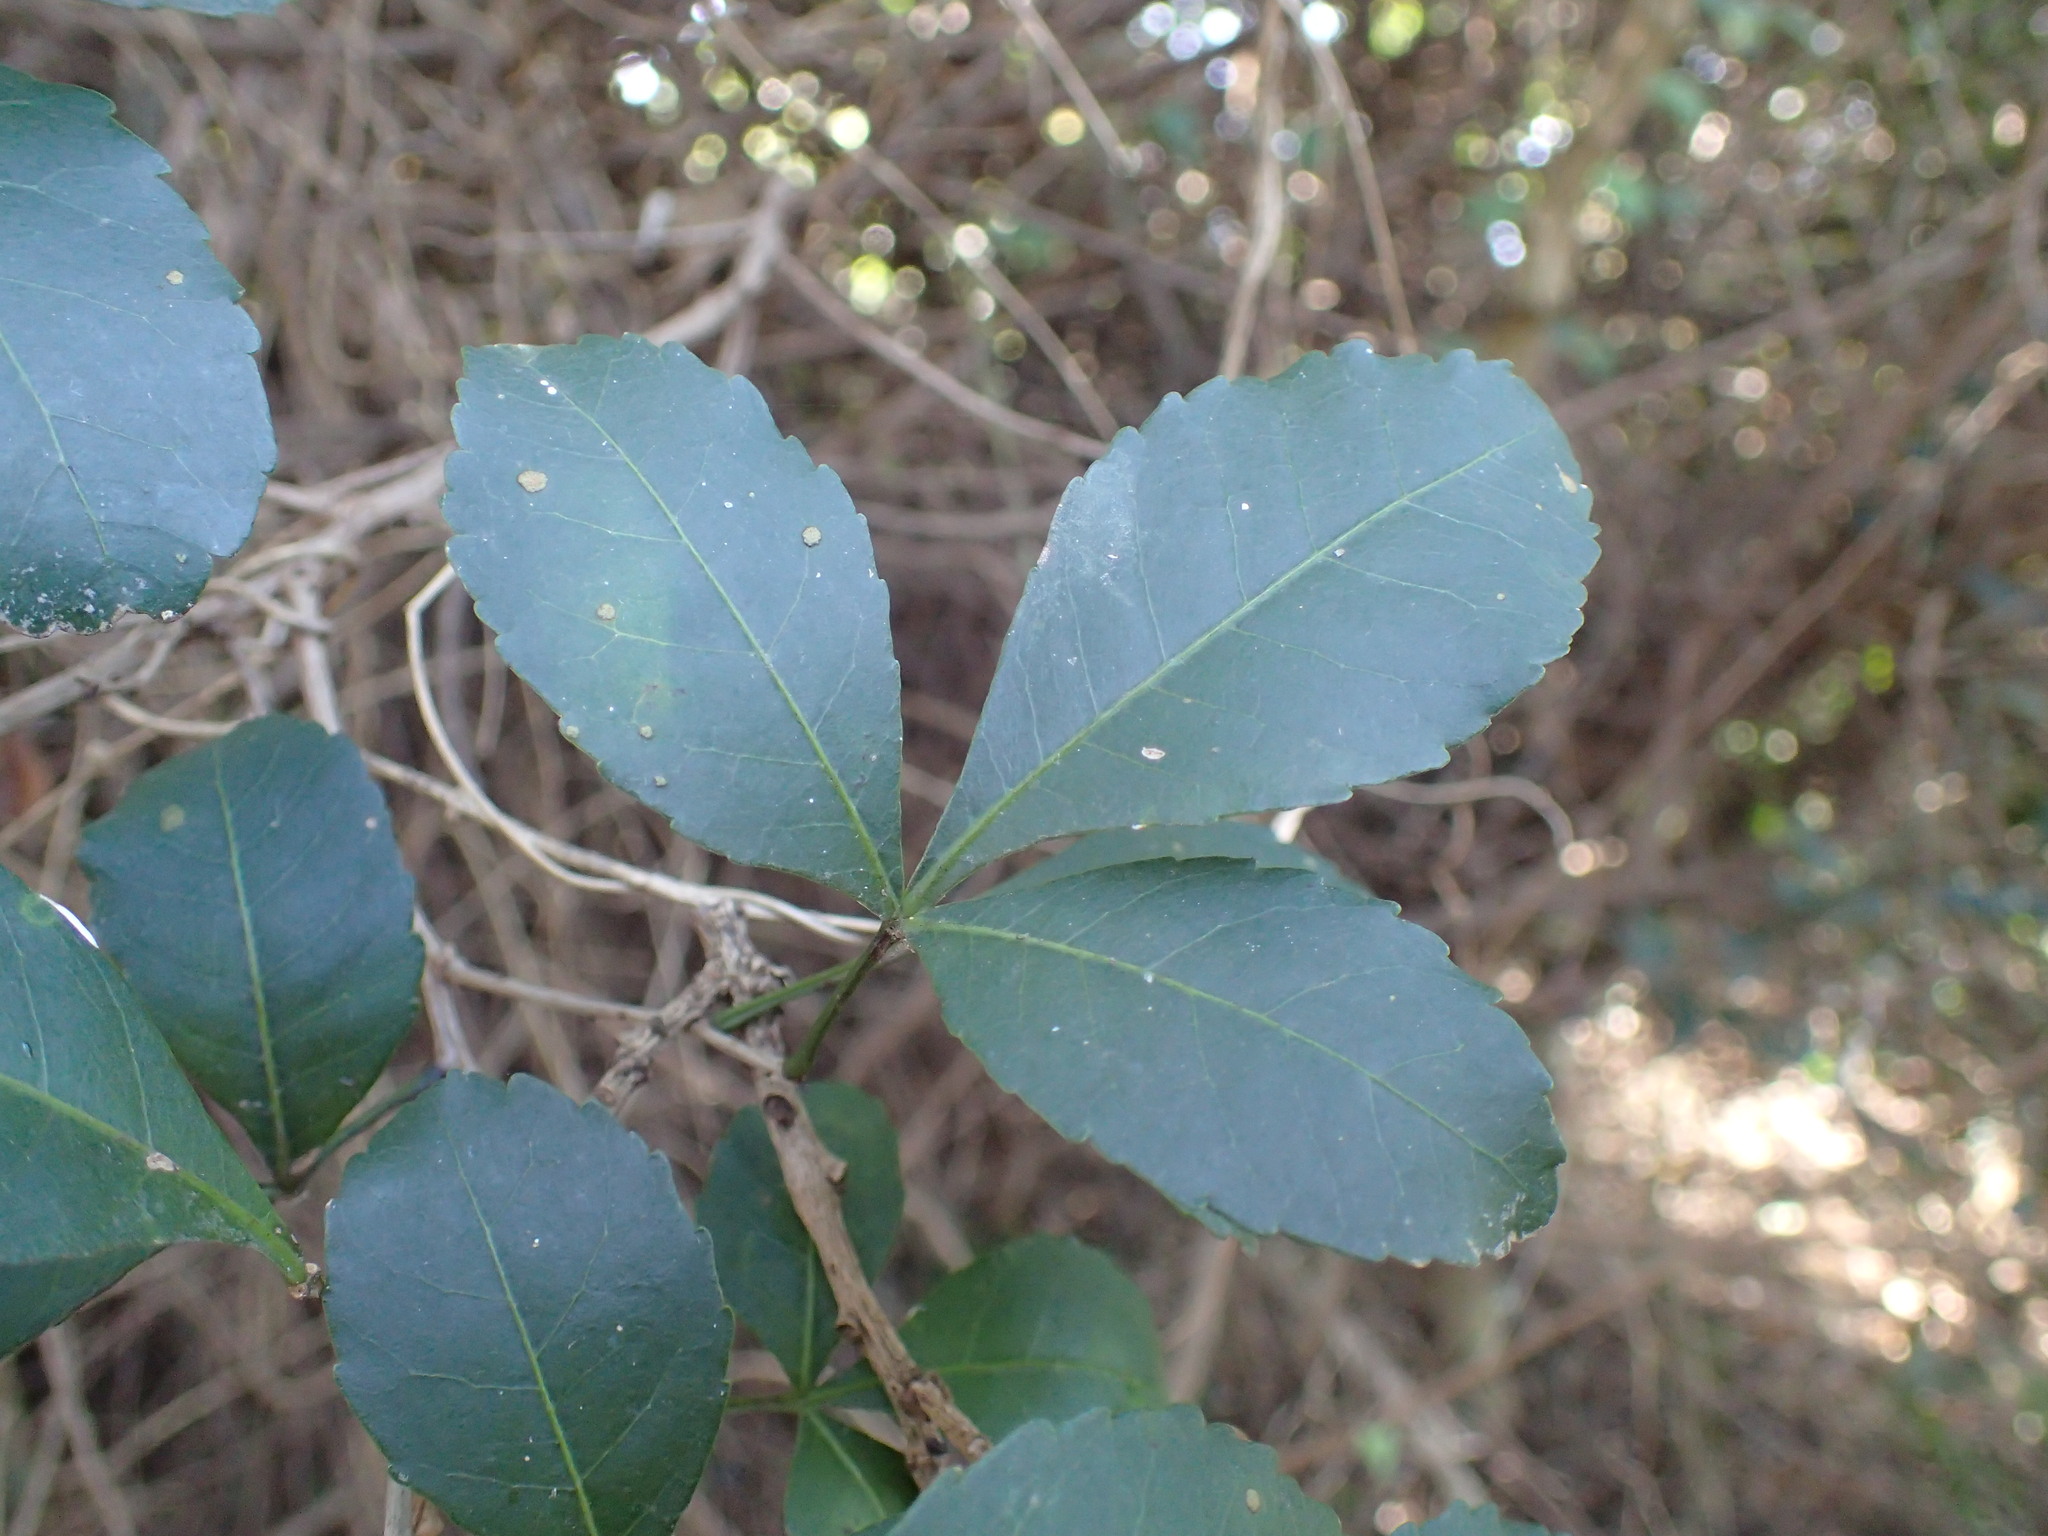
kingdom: Plantae
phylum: Tracheophyta
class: Magnoliopsida
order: Sapindales
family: Anacardiaceae
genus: Searsia
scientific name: Searsia natalensis
